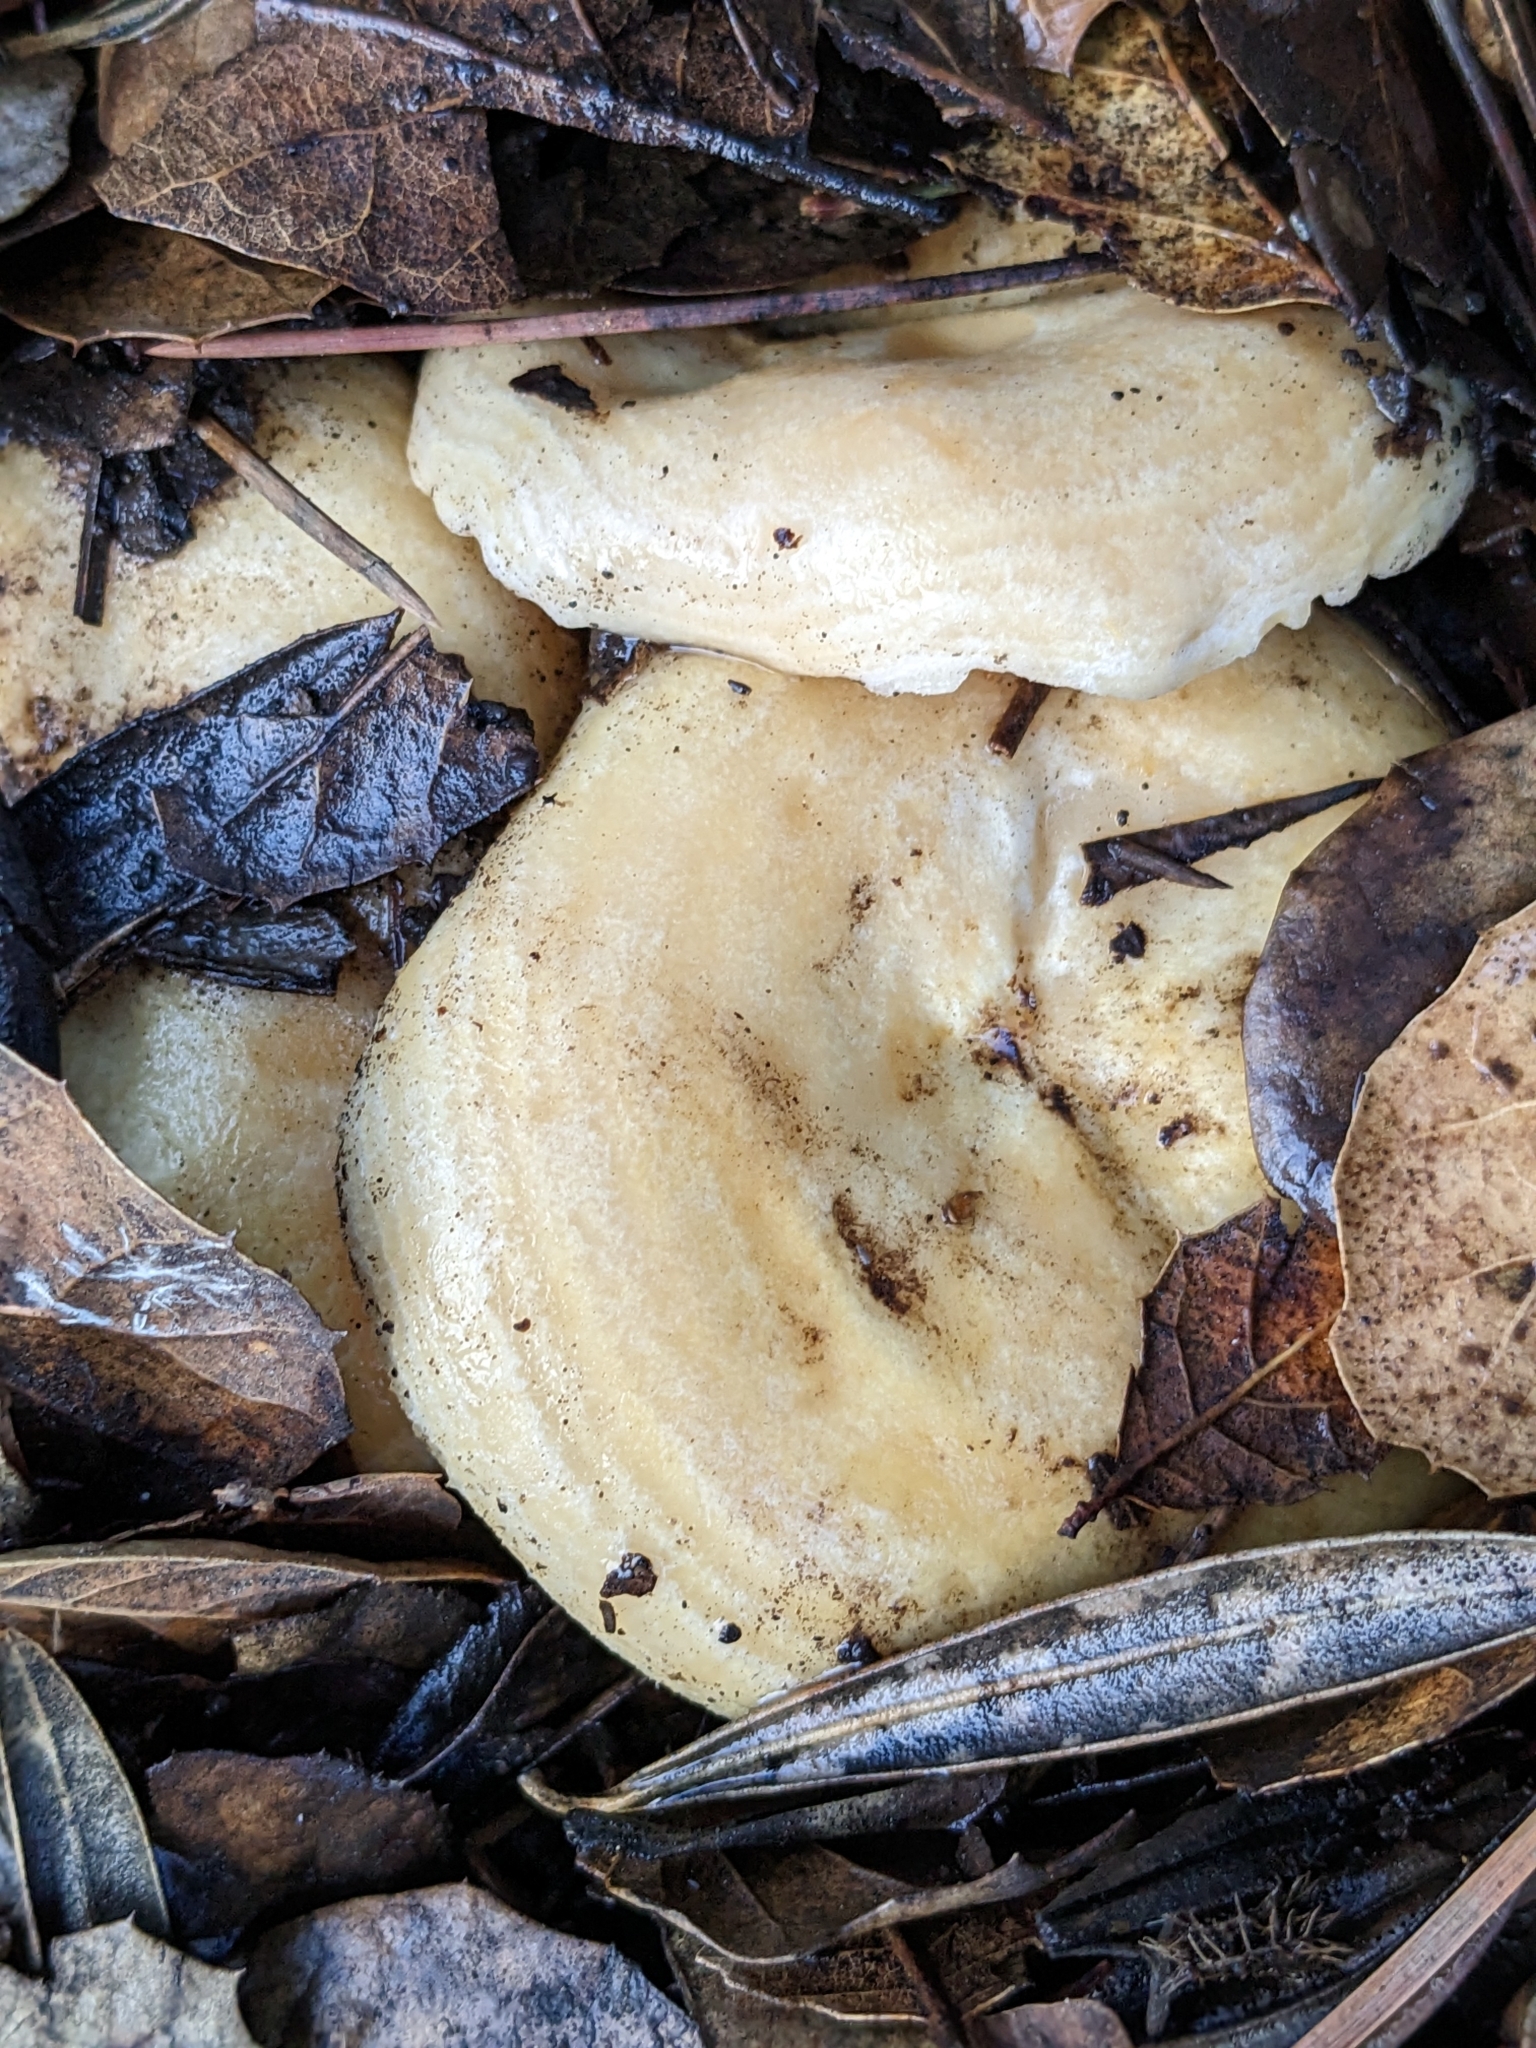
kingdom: Fungi
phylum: Basidiomycota
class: Agaricomycetes
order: Russulales
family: Russulaceae
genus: Lactarius
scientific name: Lactarius alnicola
